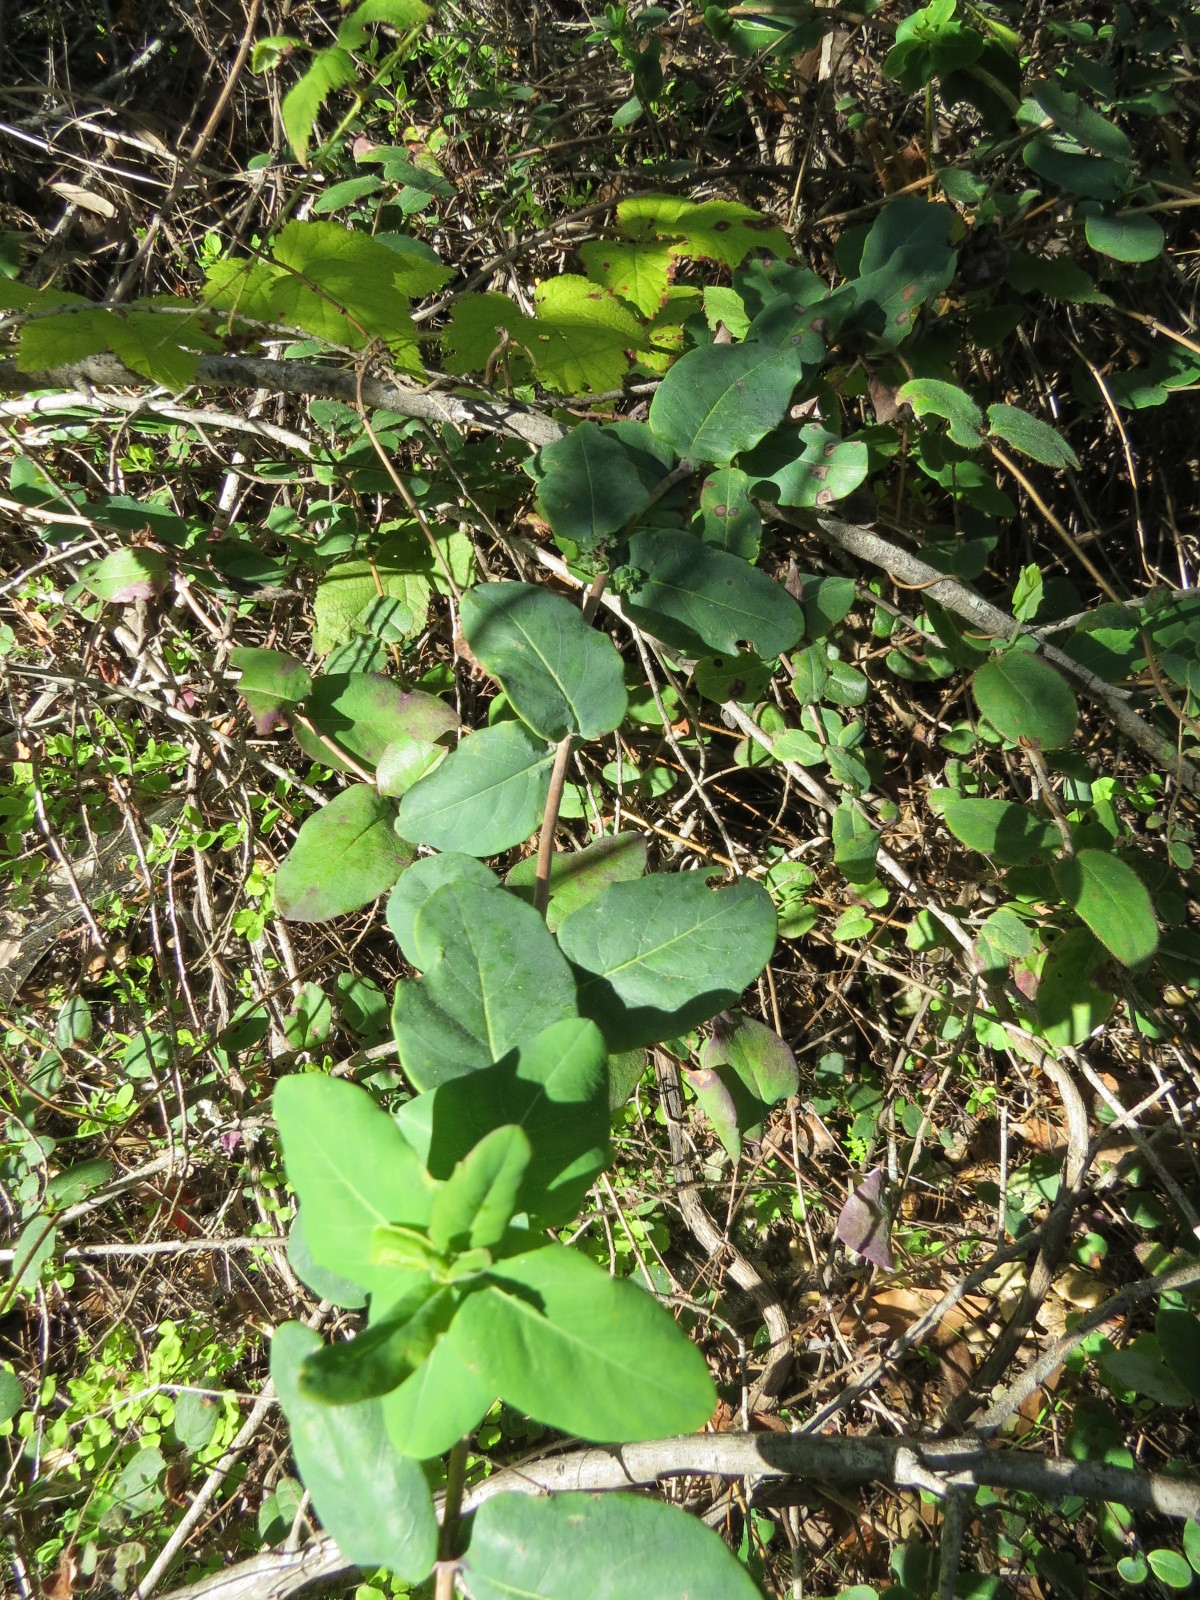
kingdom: Plantae
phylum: Tracheophyta
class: Magnoliopsida
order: Dipsacales
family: Caprifoliaceae
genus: Lonicera
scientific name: Lonicera hispidula
